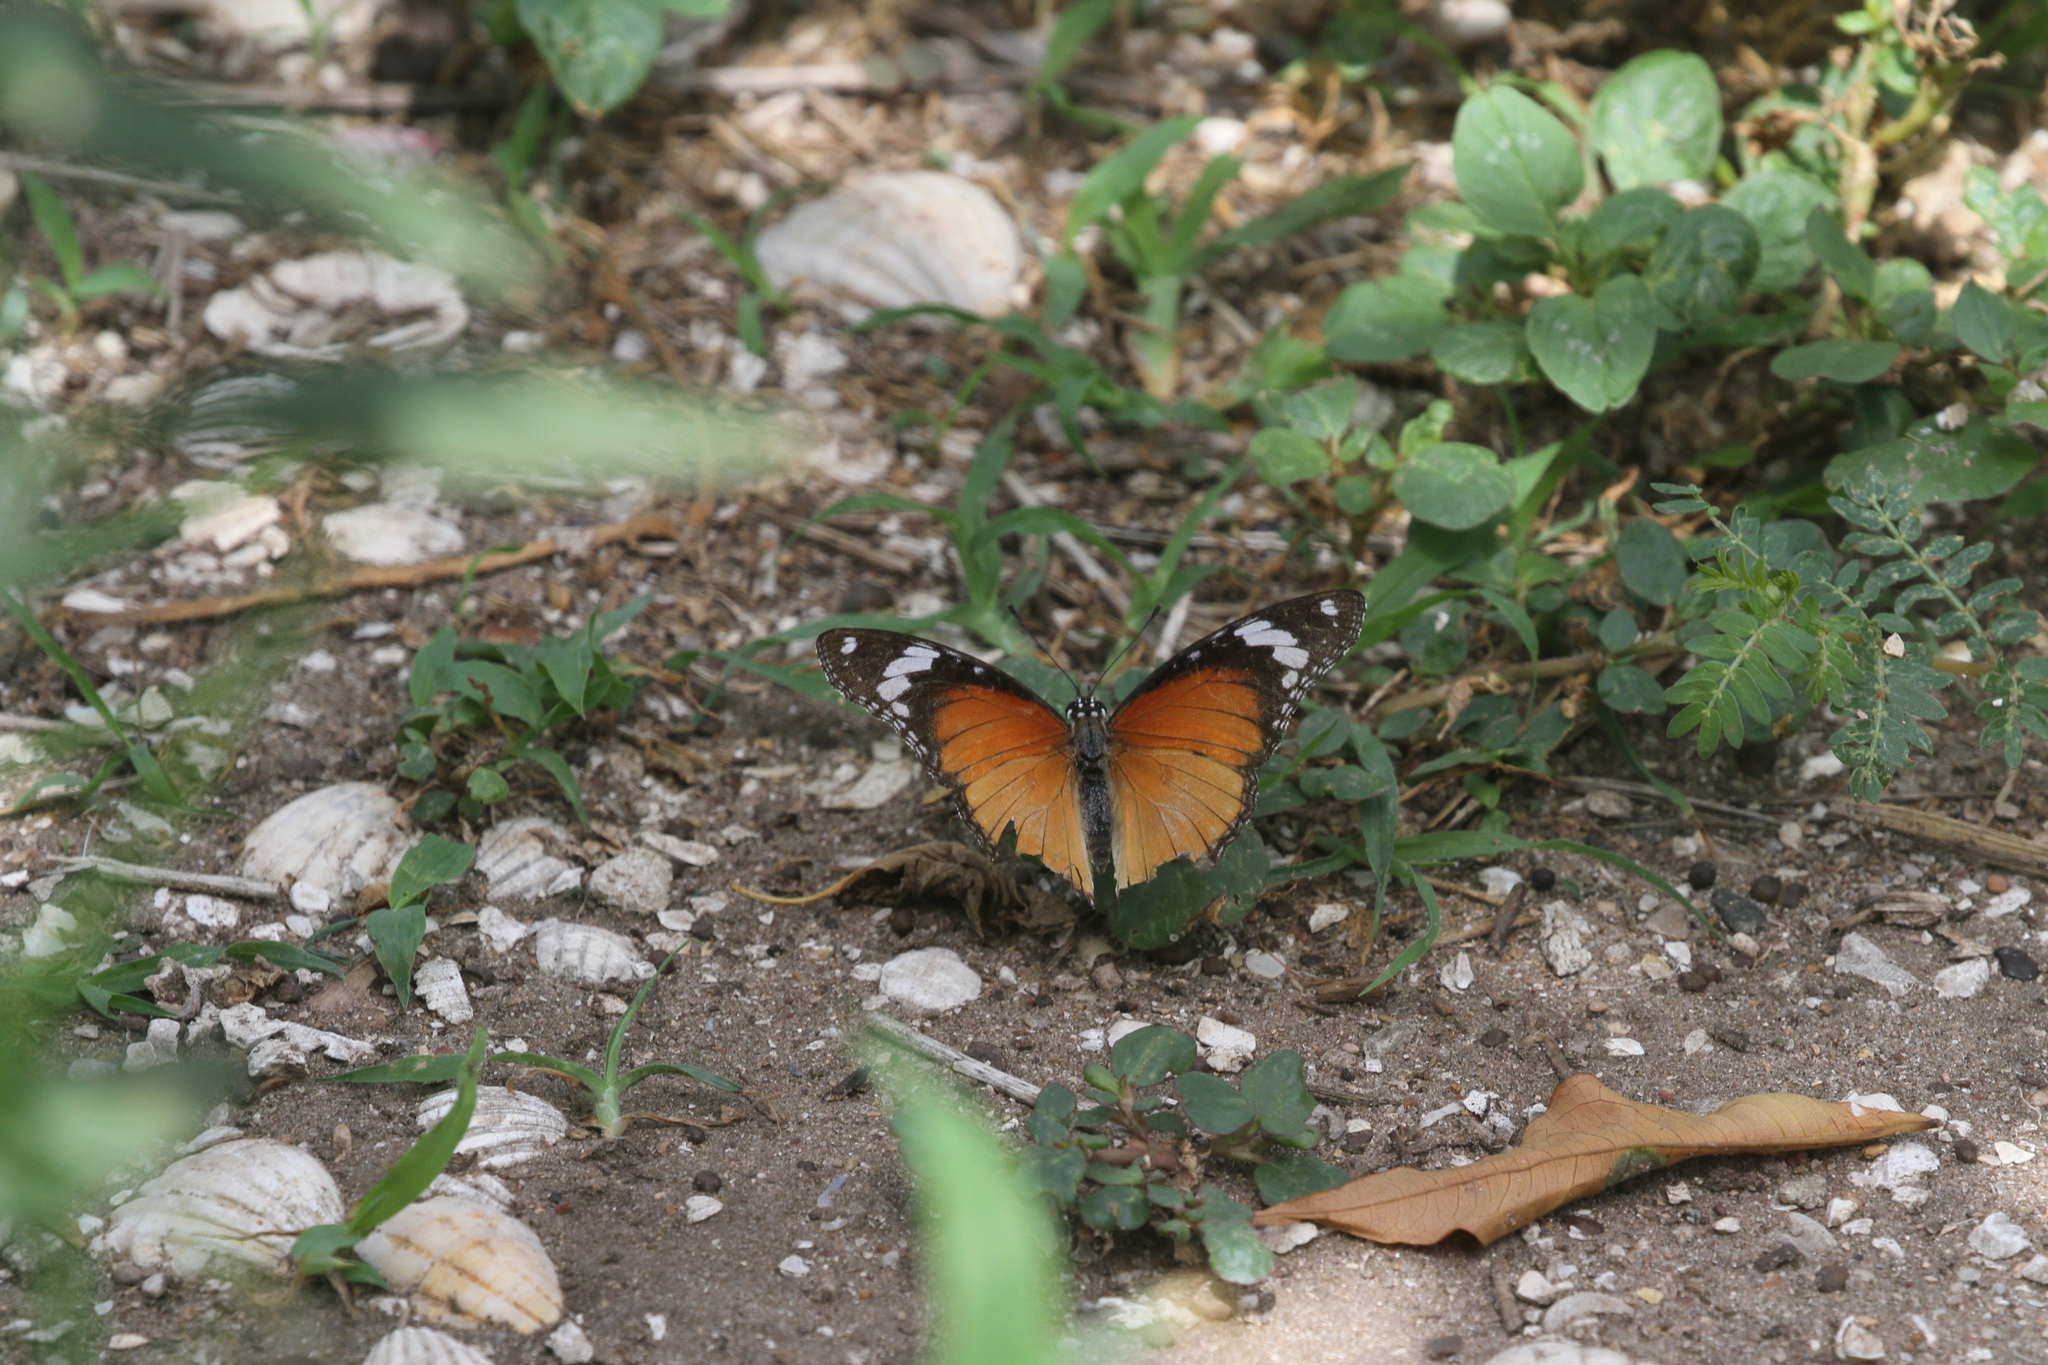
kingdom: Animalia
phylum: Arthropoda
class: Insecta
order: Lepidoptera
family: Nymphalidae
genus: Hypolimnas
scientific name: Hypolimnas misippus
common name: False plain tiger
